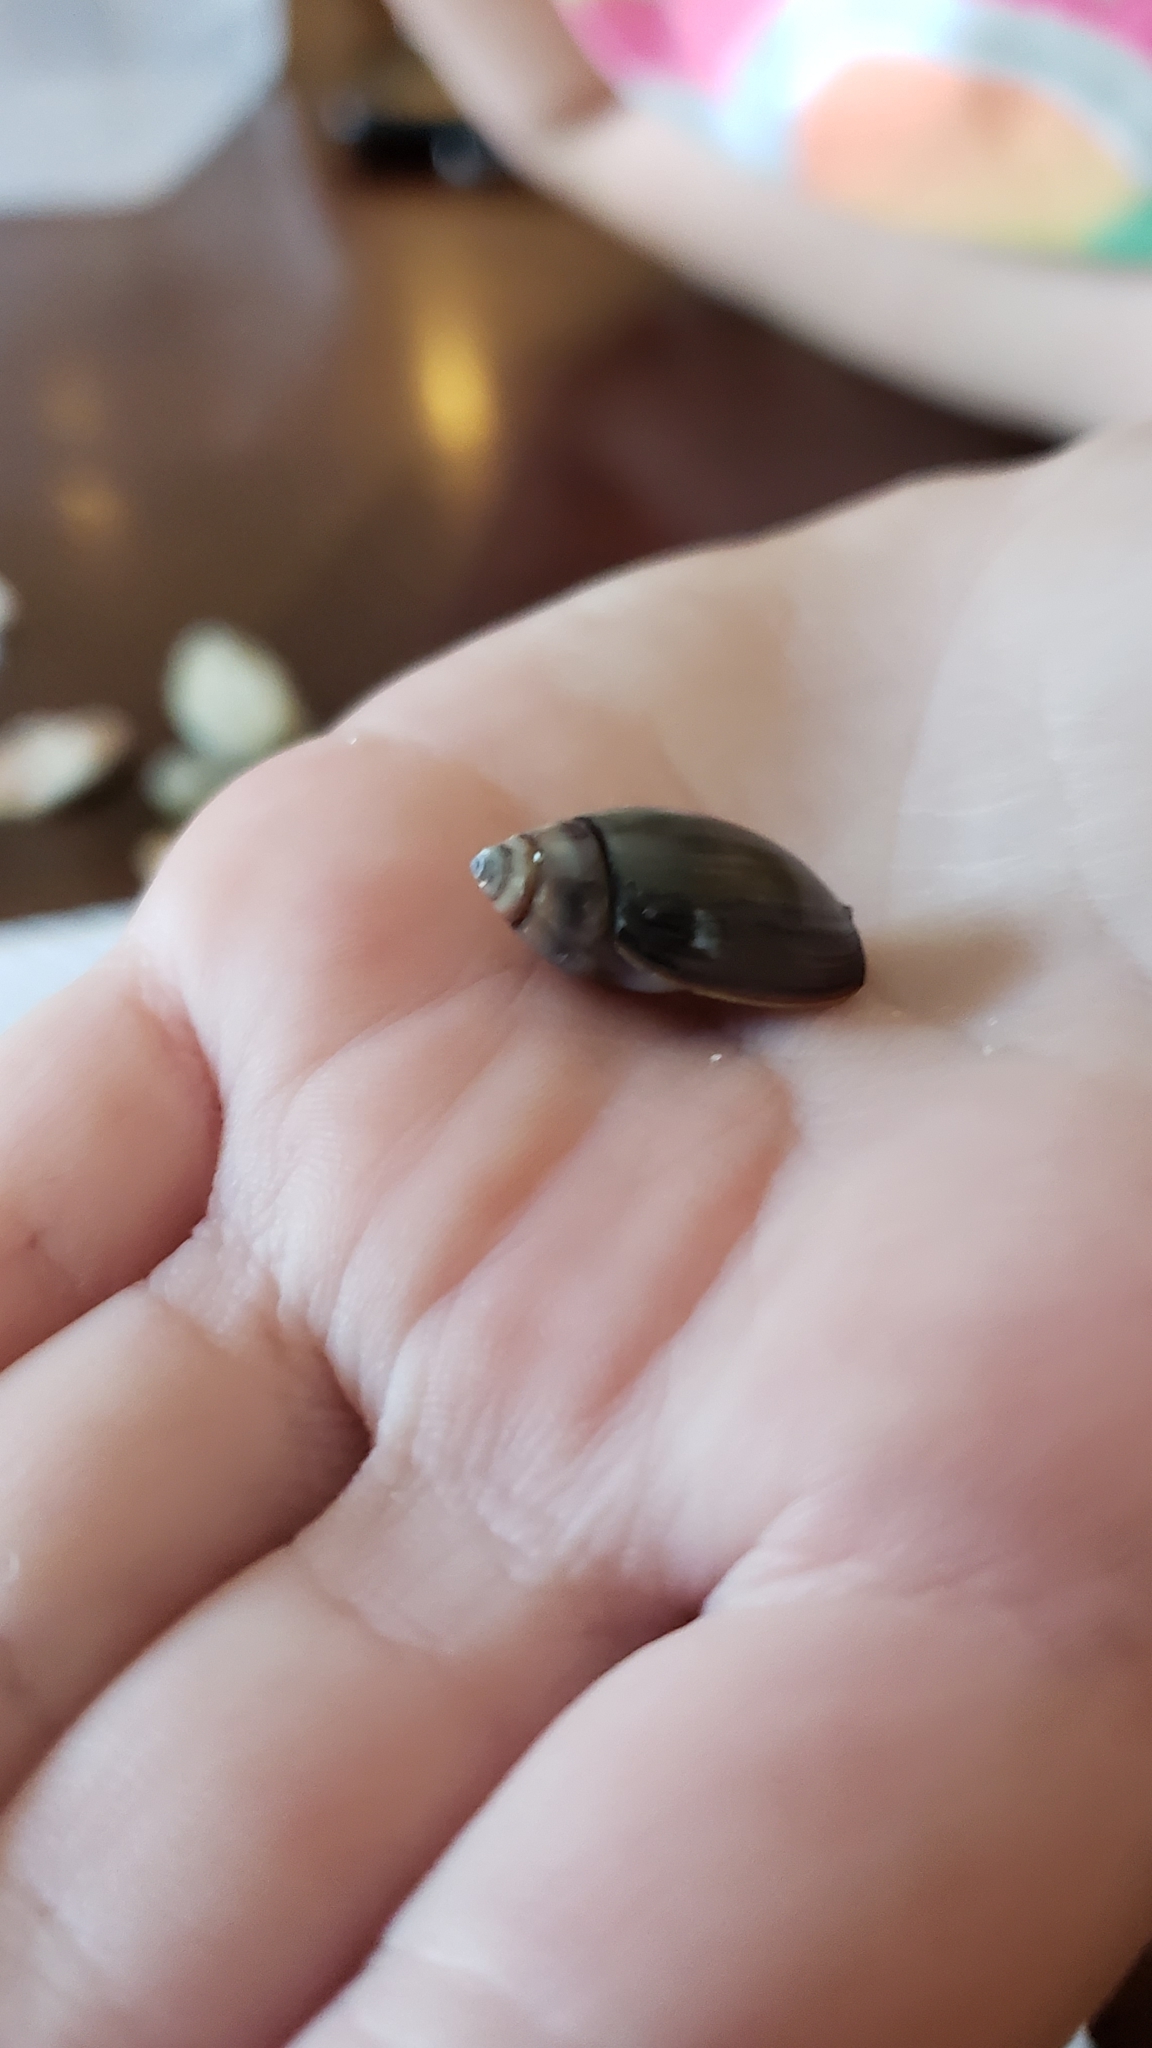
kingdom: Animalia
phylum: Mollusca
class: Gastropoda
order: Neogastropoda
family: Olividae
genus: Callianax
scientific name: Callianax biplicata
